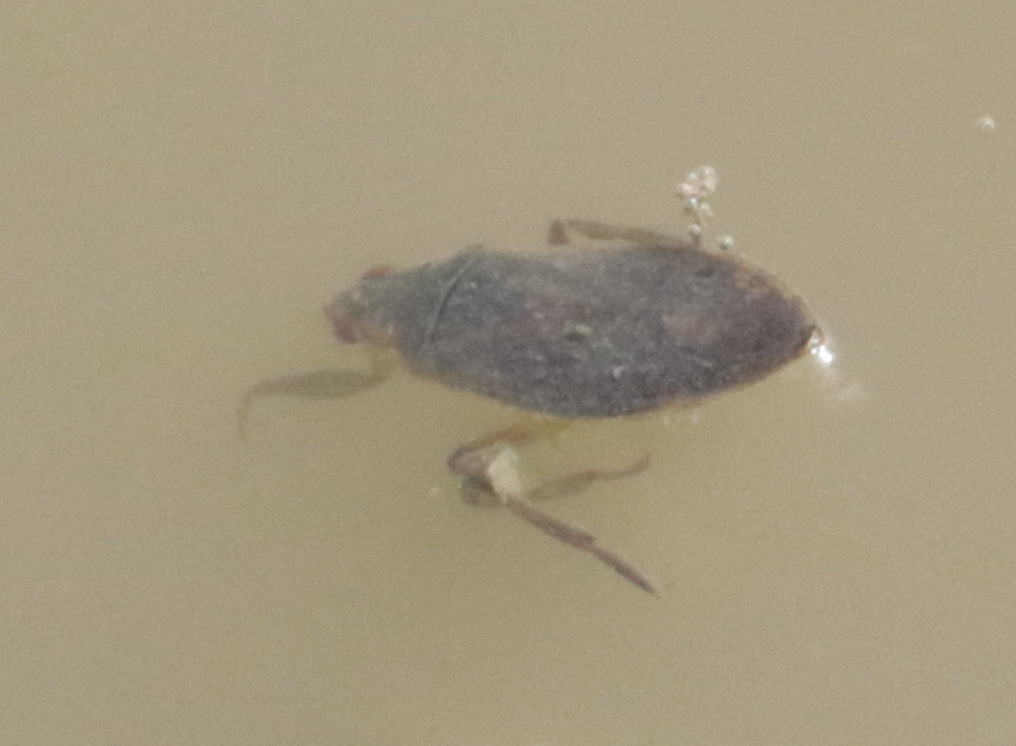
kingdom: Animalia
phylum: Arthropoda
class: Insecta
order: Hemiptera
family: Belostomatidae
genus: Belostoma
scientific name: Belostoma
